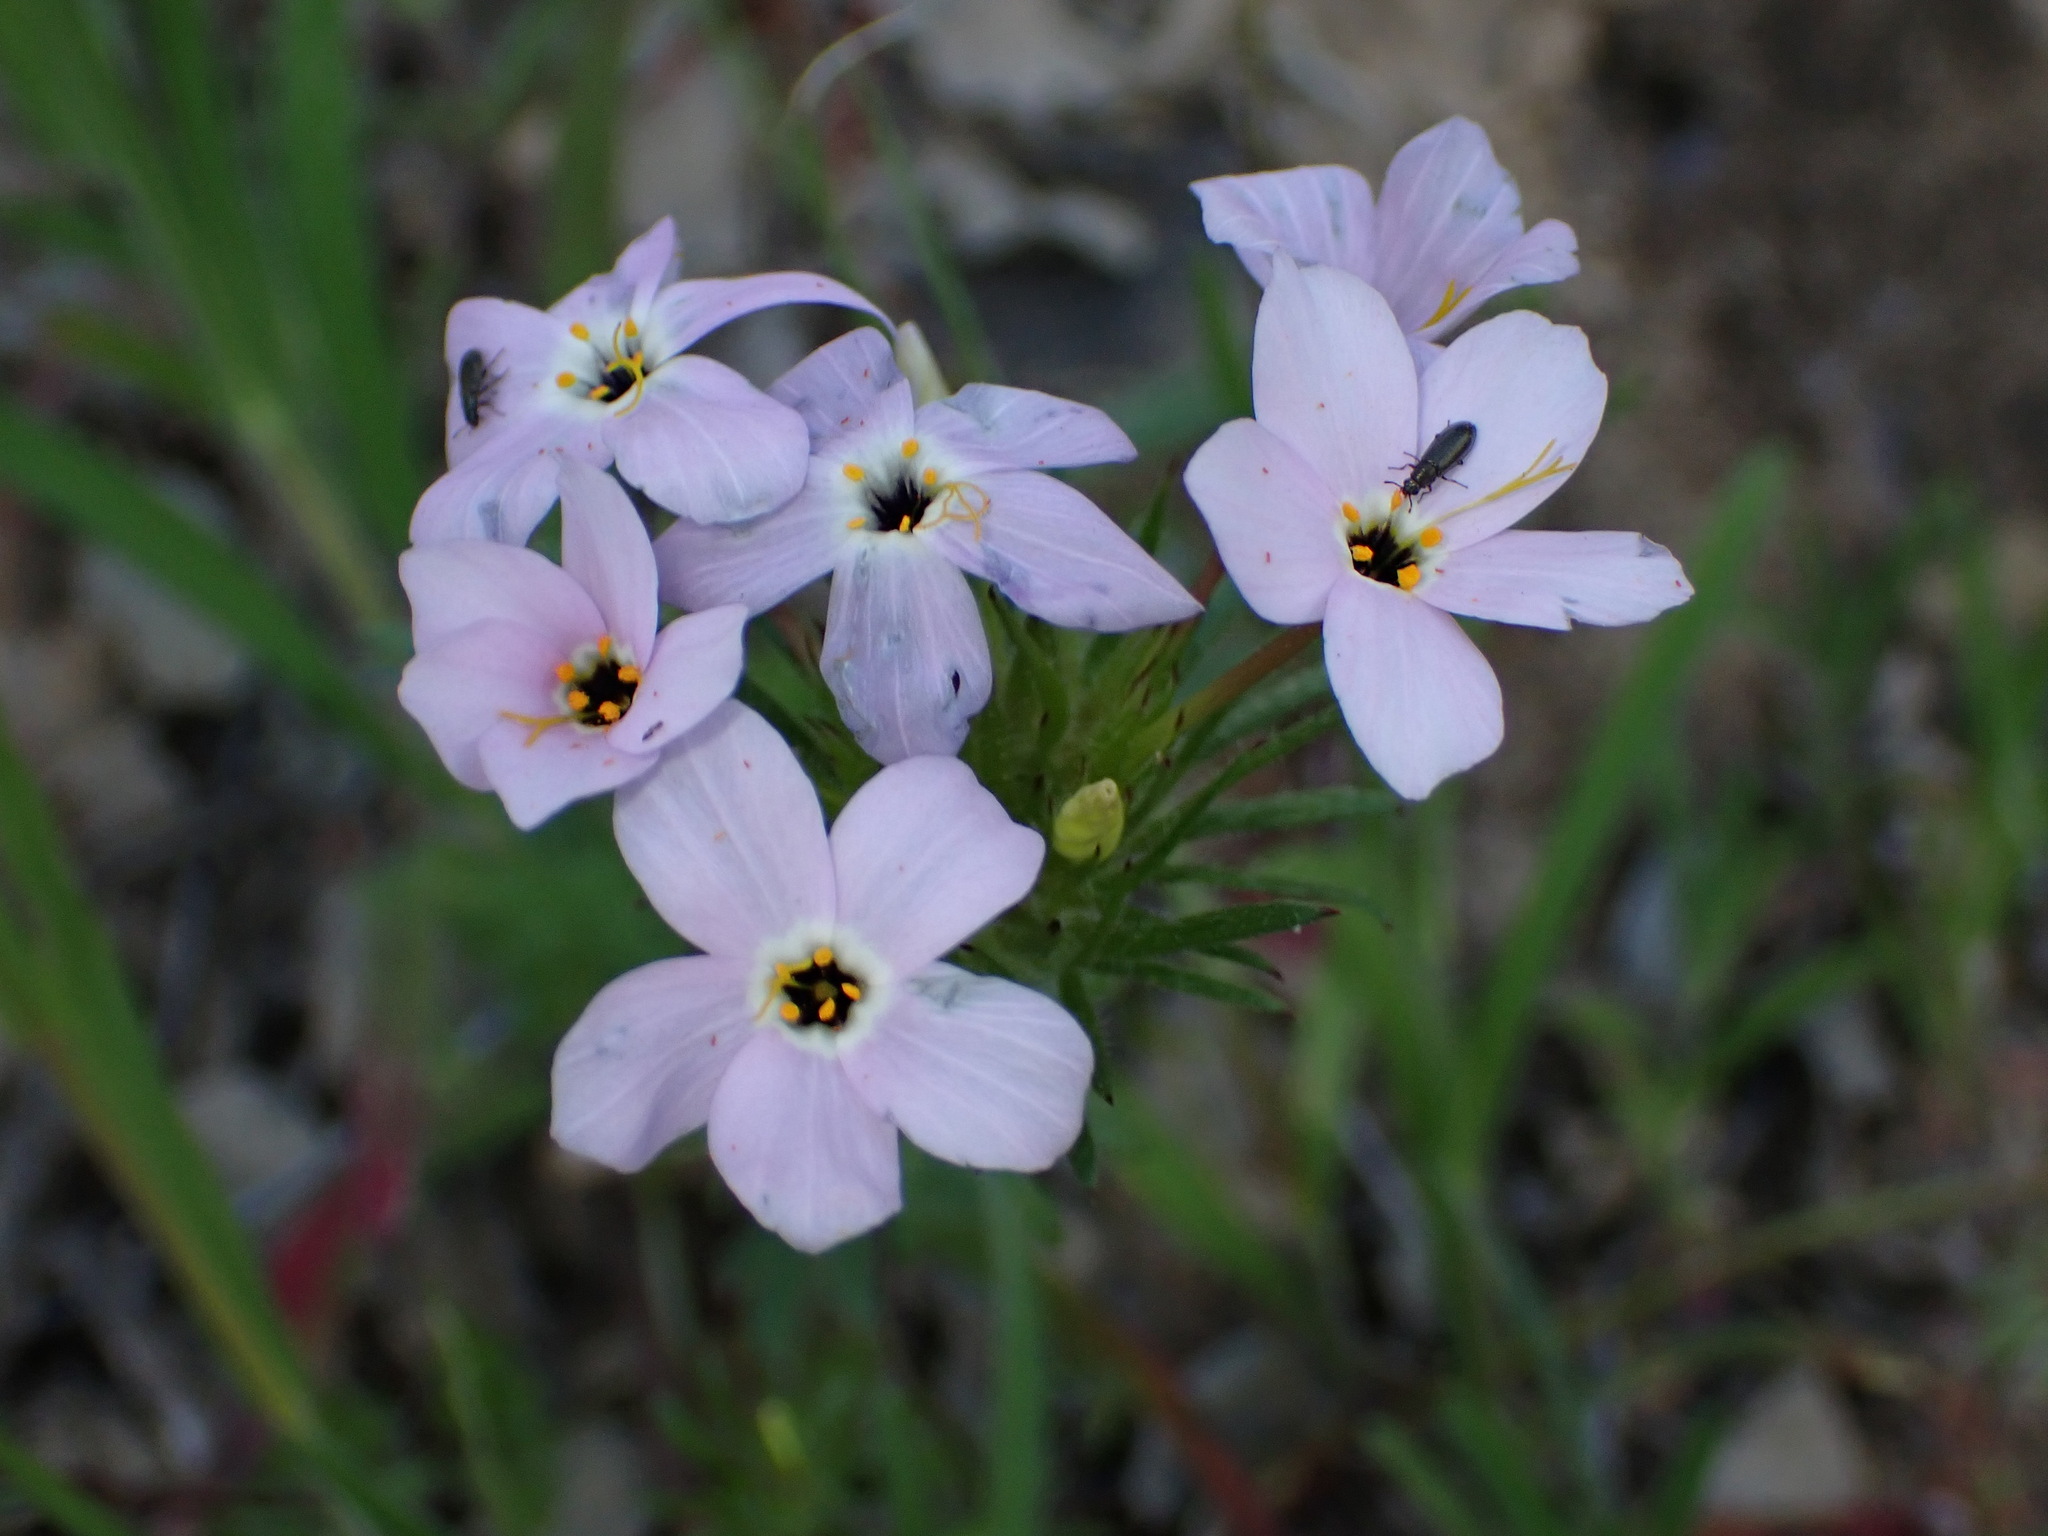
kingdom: Plantae
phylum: Tracheophyta
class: Magnoliopsida
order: Ericales
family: Polemoniaceae
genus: Leptosiphon
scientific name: Leptosiphon androsaceus
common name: False babystars
